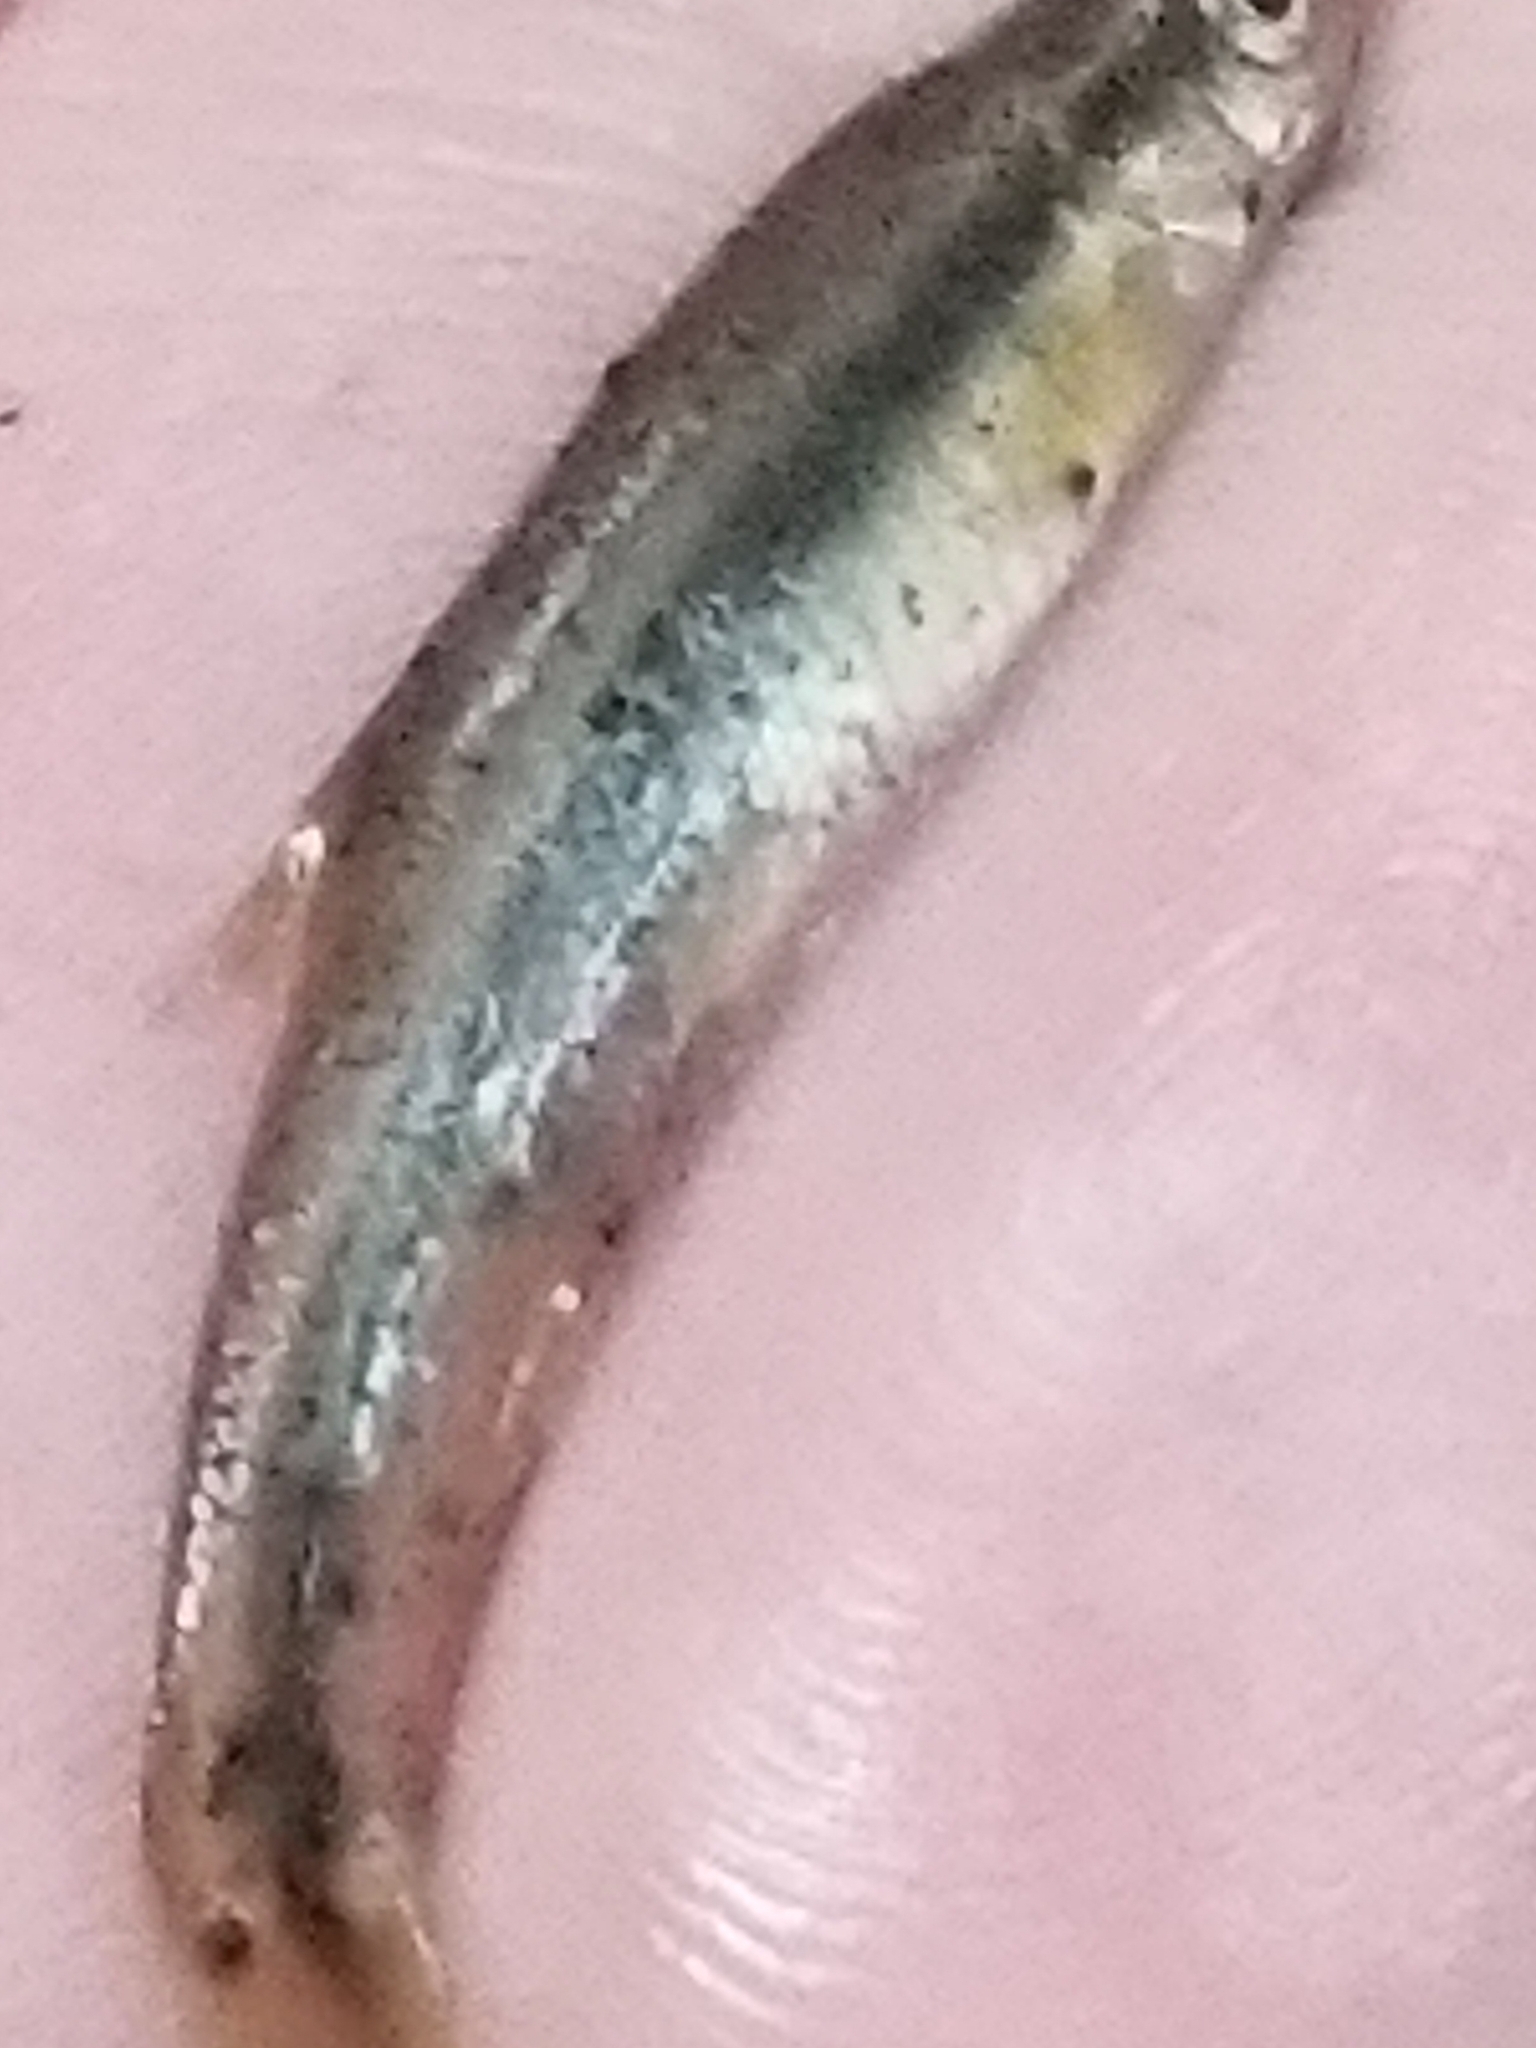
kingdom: Animalia
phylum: Platyhelminthes
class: Trematoda
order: Diplostomida
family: Diplostomidae
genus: Neascus
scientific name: Neascus
